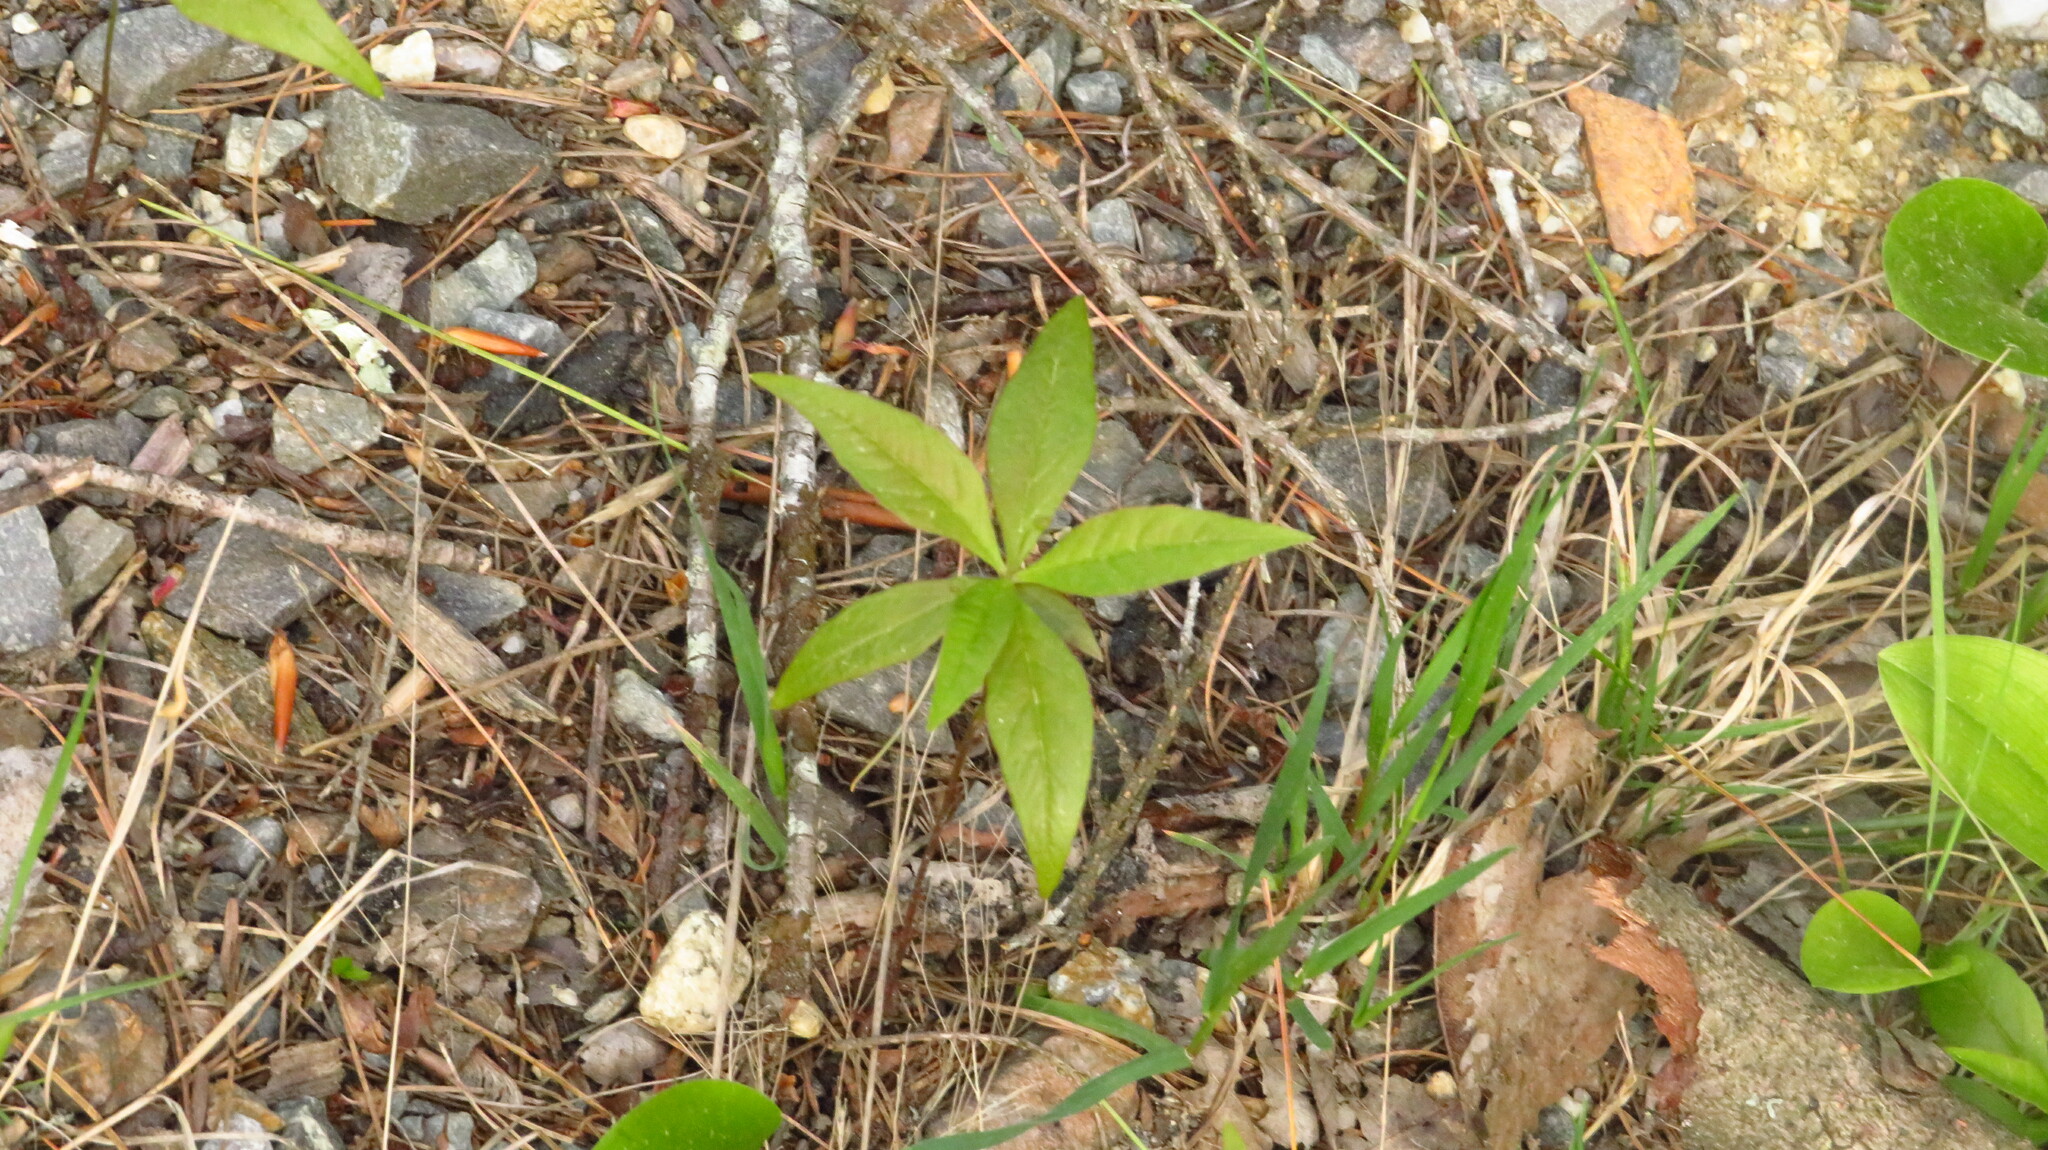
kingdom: Plantae
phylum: Tracheophyta
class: Magnoliopsida
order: Ericales
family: Primulaceae
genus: Lysimachia
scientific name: Lysimachia borealis
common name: American starflower
